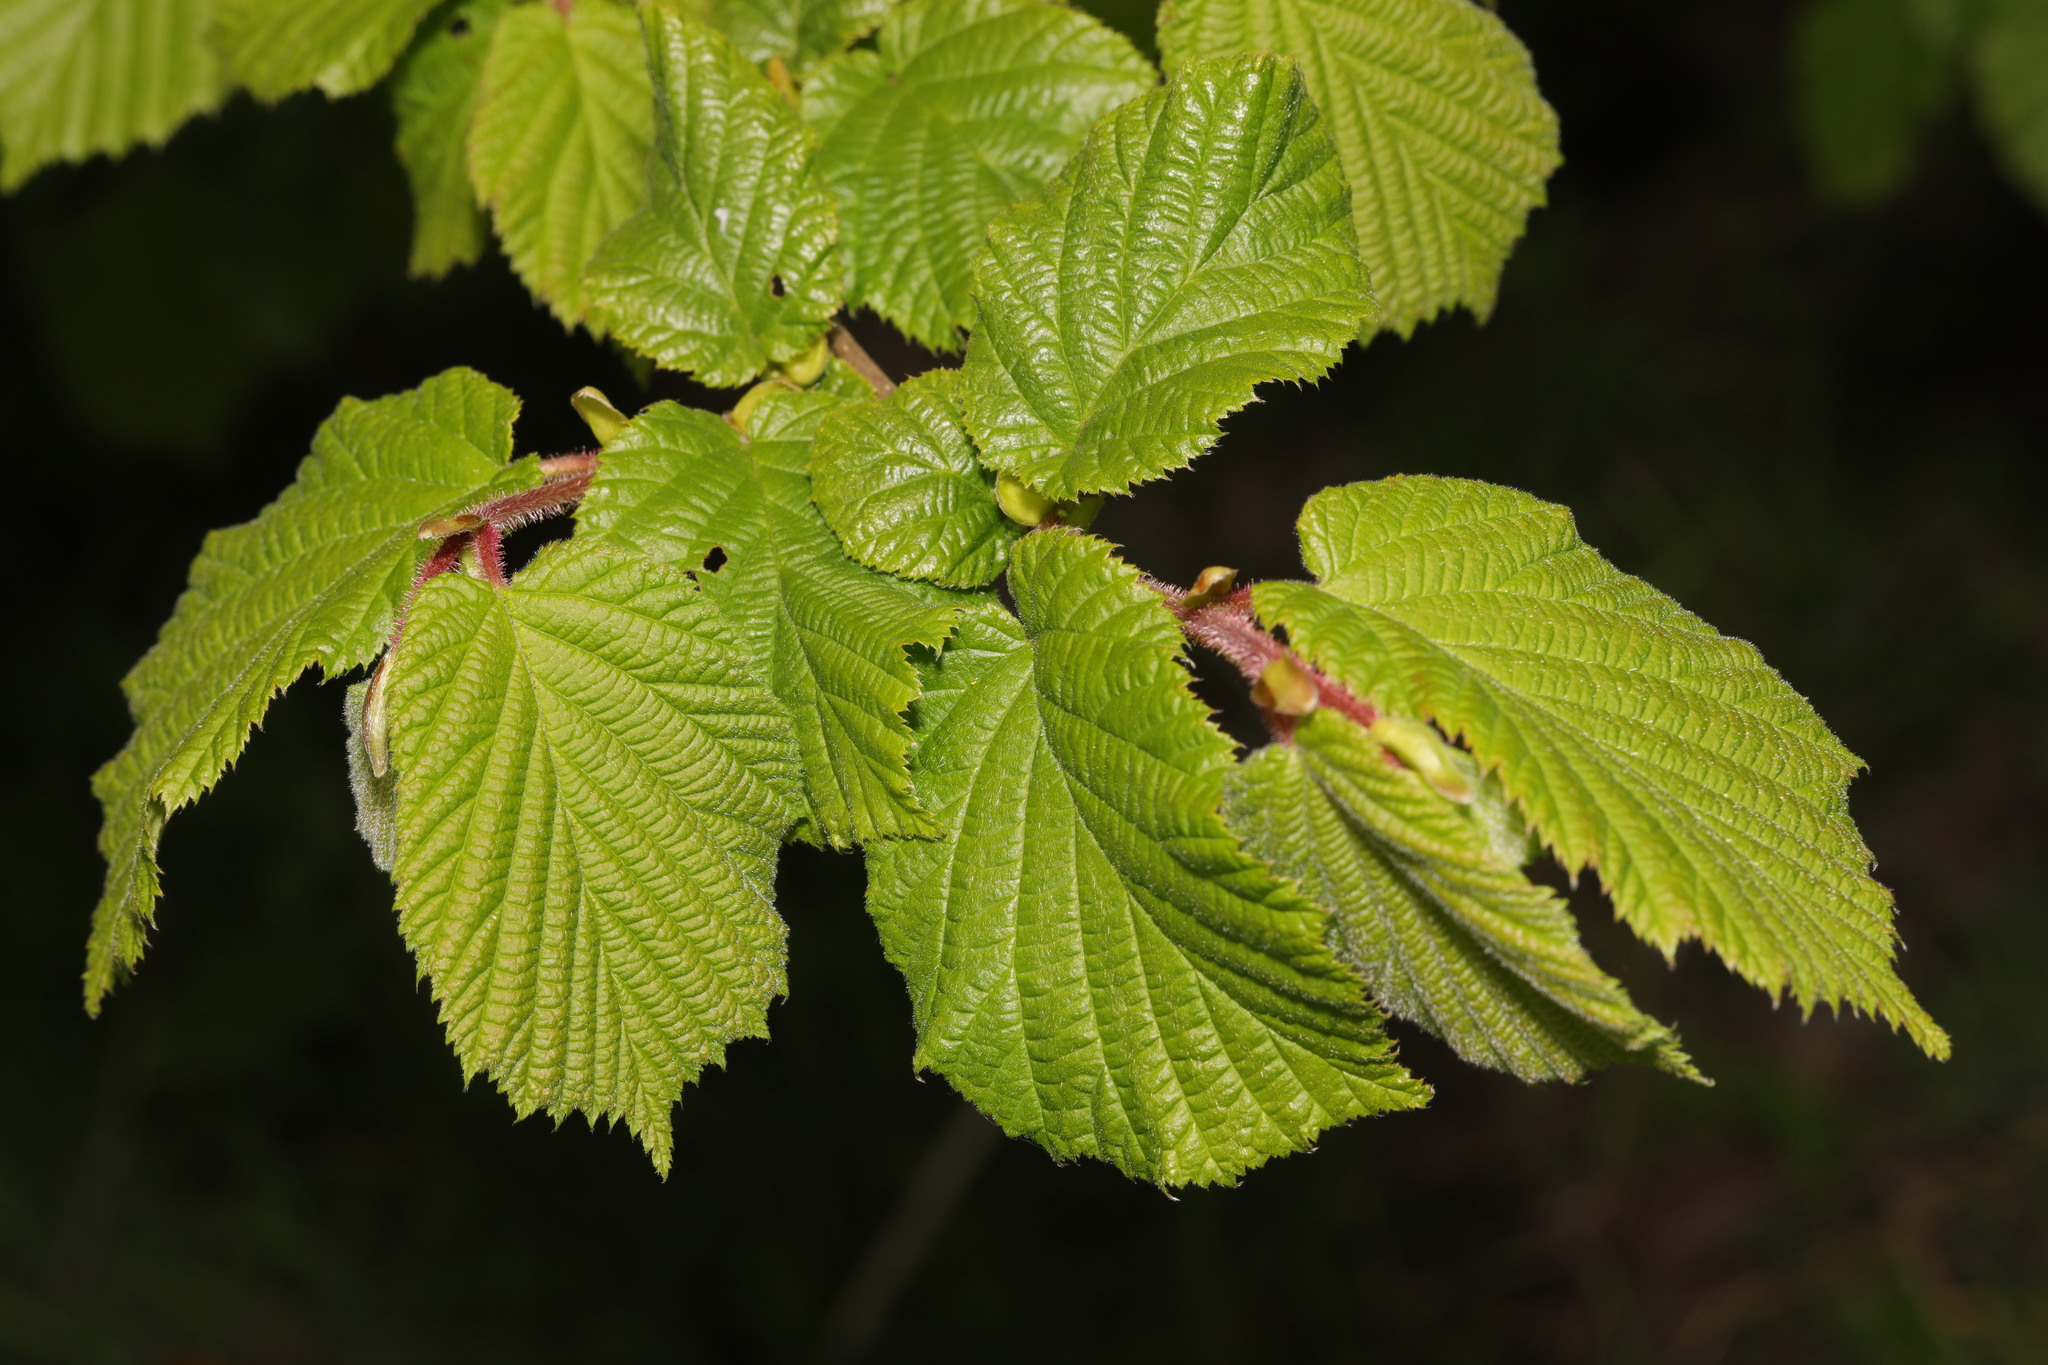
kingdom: Plantae
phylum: Tracheophyta
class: Magnoliopsida
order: Fagales
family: Betulaceae
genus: Corylus
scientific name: Corylus avellana
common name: European hazel
